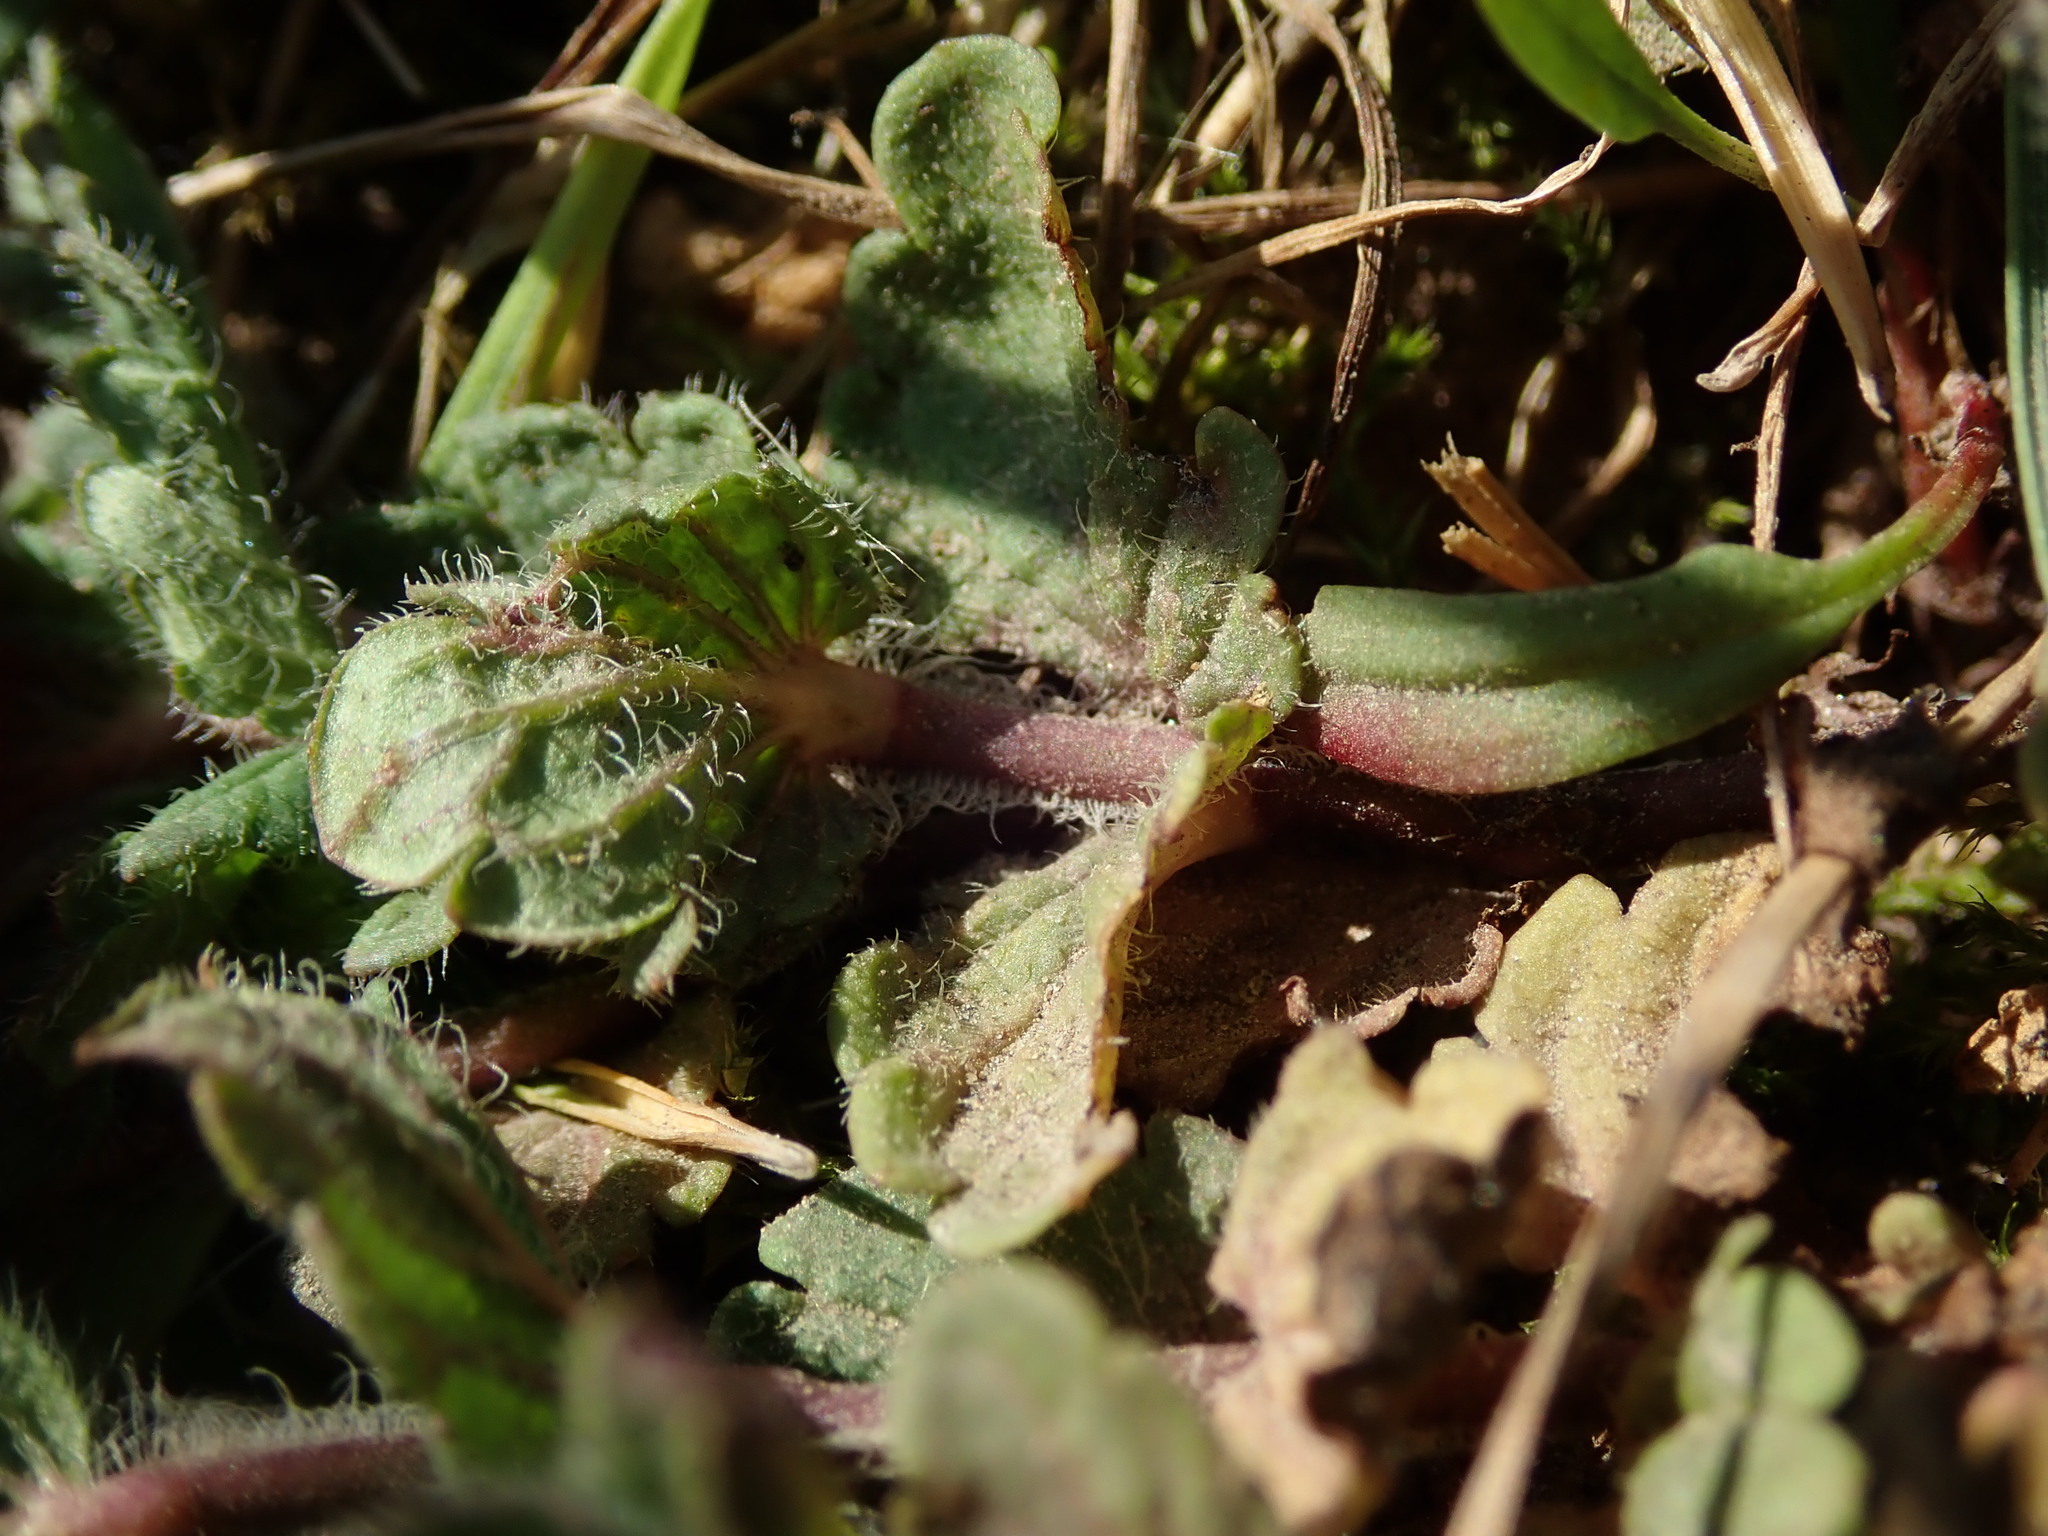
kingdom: Plantae
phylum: Tracheophyta
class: Magnoliopsida
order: Lamiales
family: Plantaginaceae
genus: Veronica
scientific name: Veronica chamaedrys
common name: Germander speedwell
